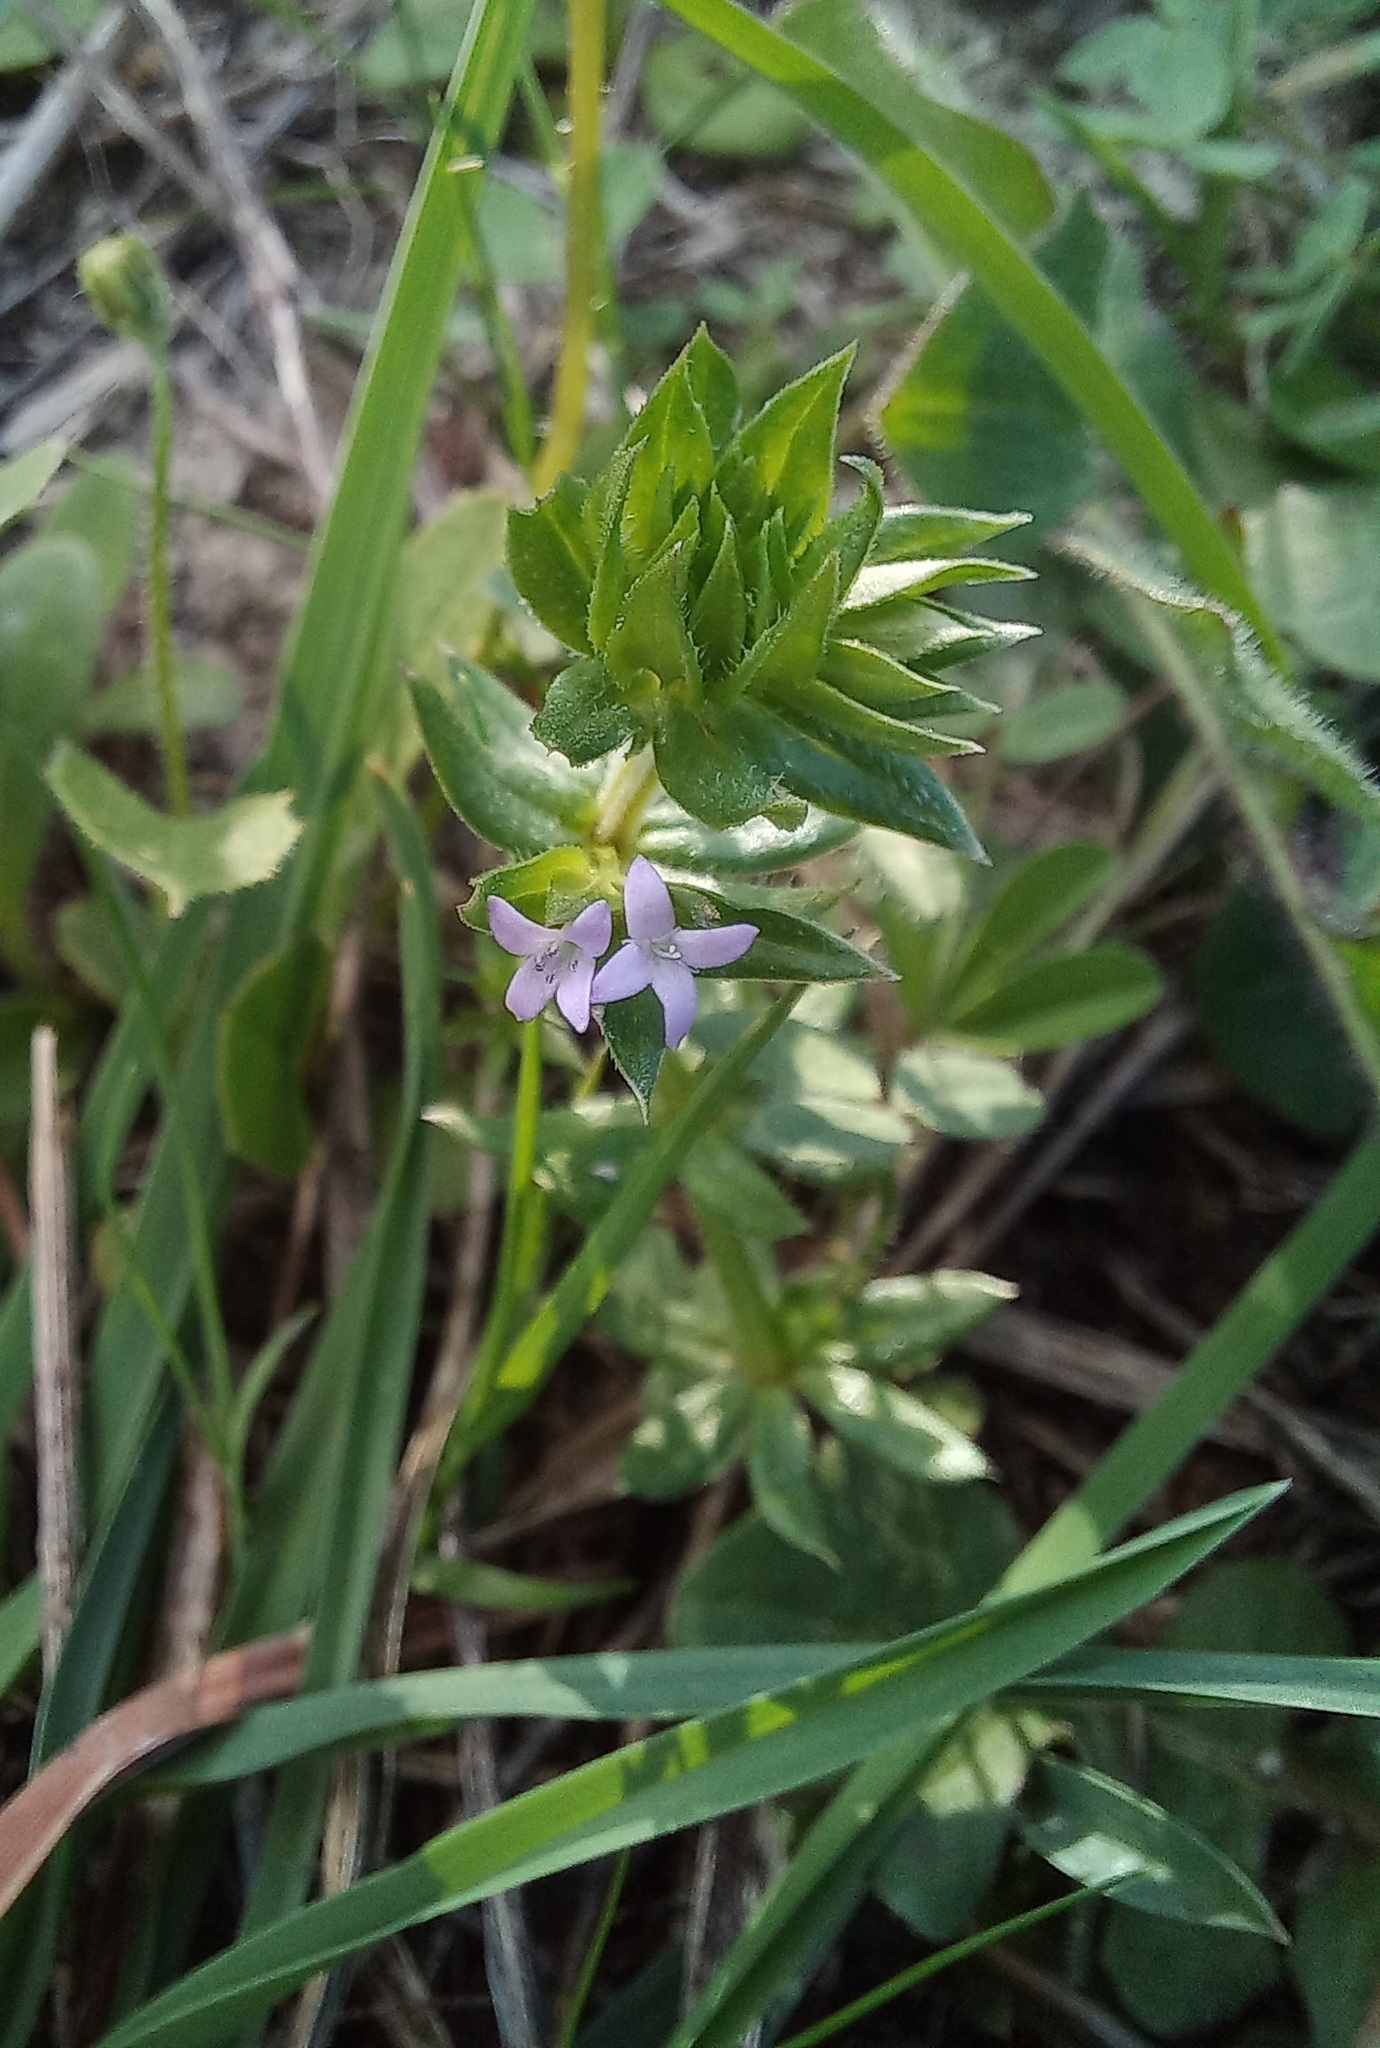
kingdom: Plantae
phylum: Tracheophyta
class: Magnoliopsida
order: Gentianales
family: Rubiaceae
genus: Sherardia
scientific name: Sherardia arvensis
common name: Field madder
